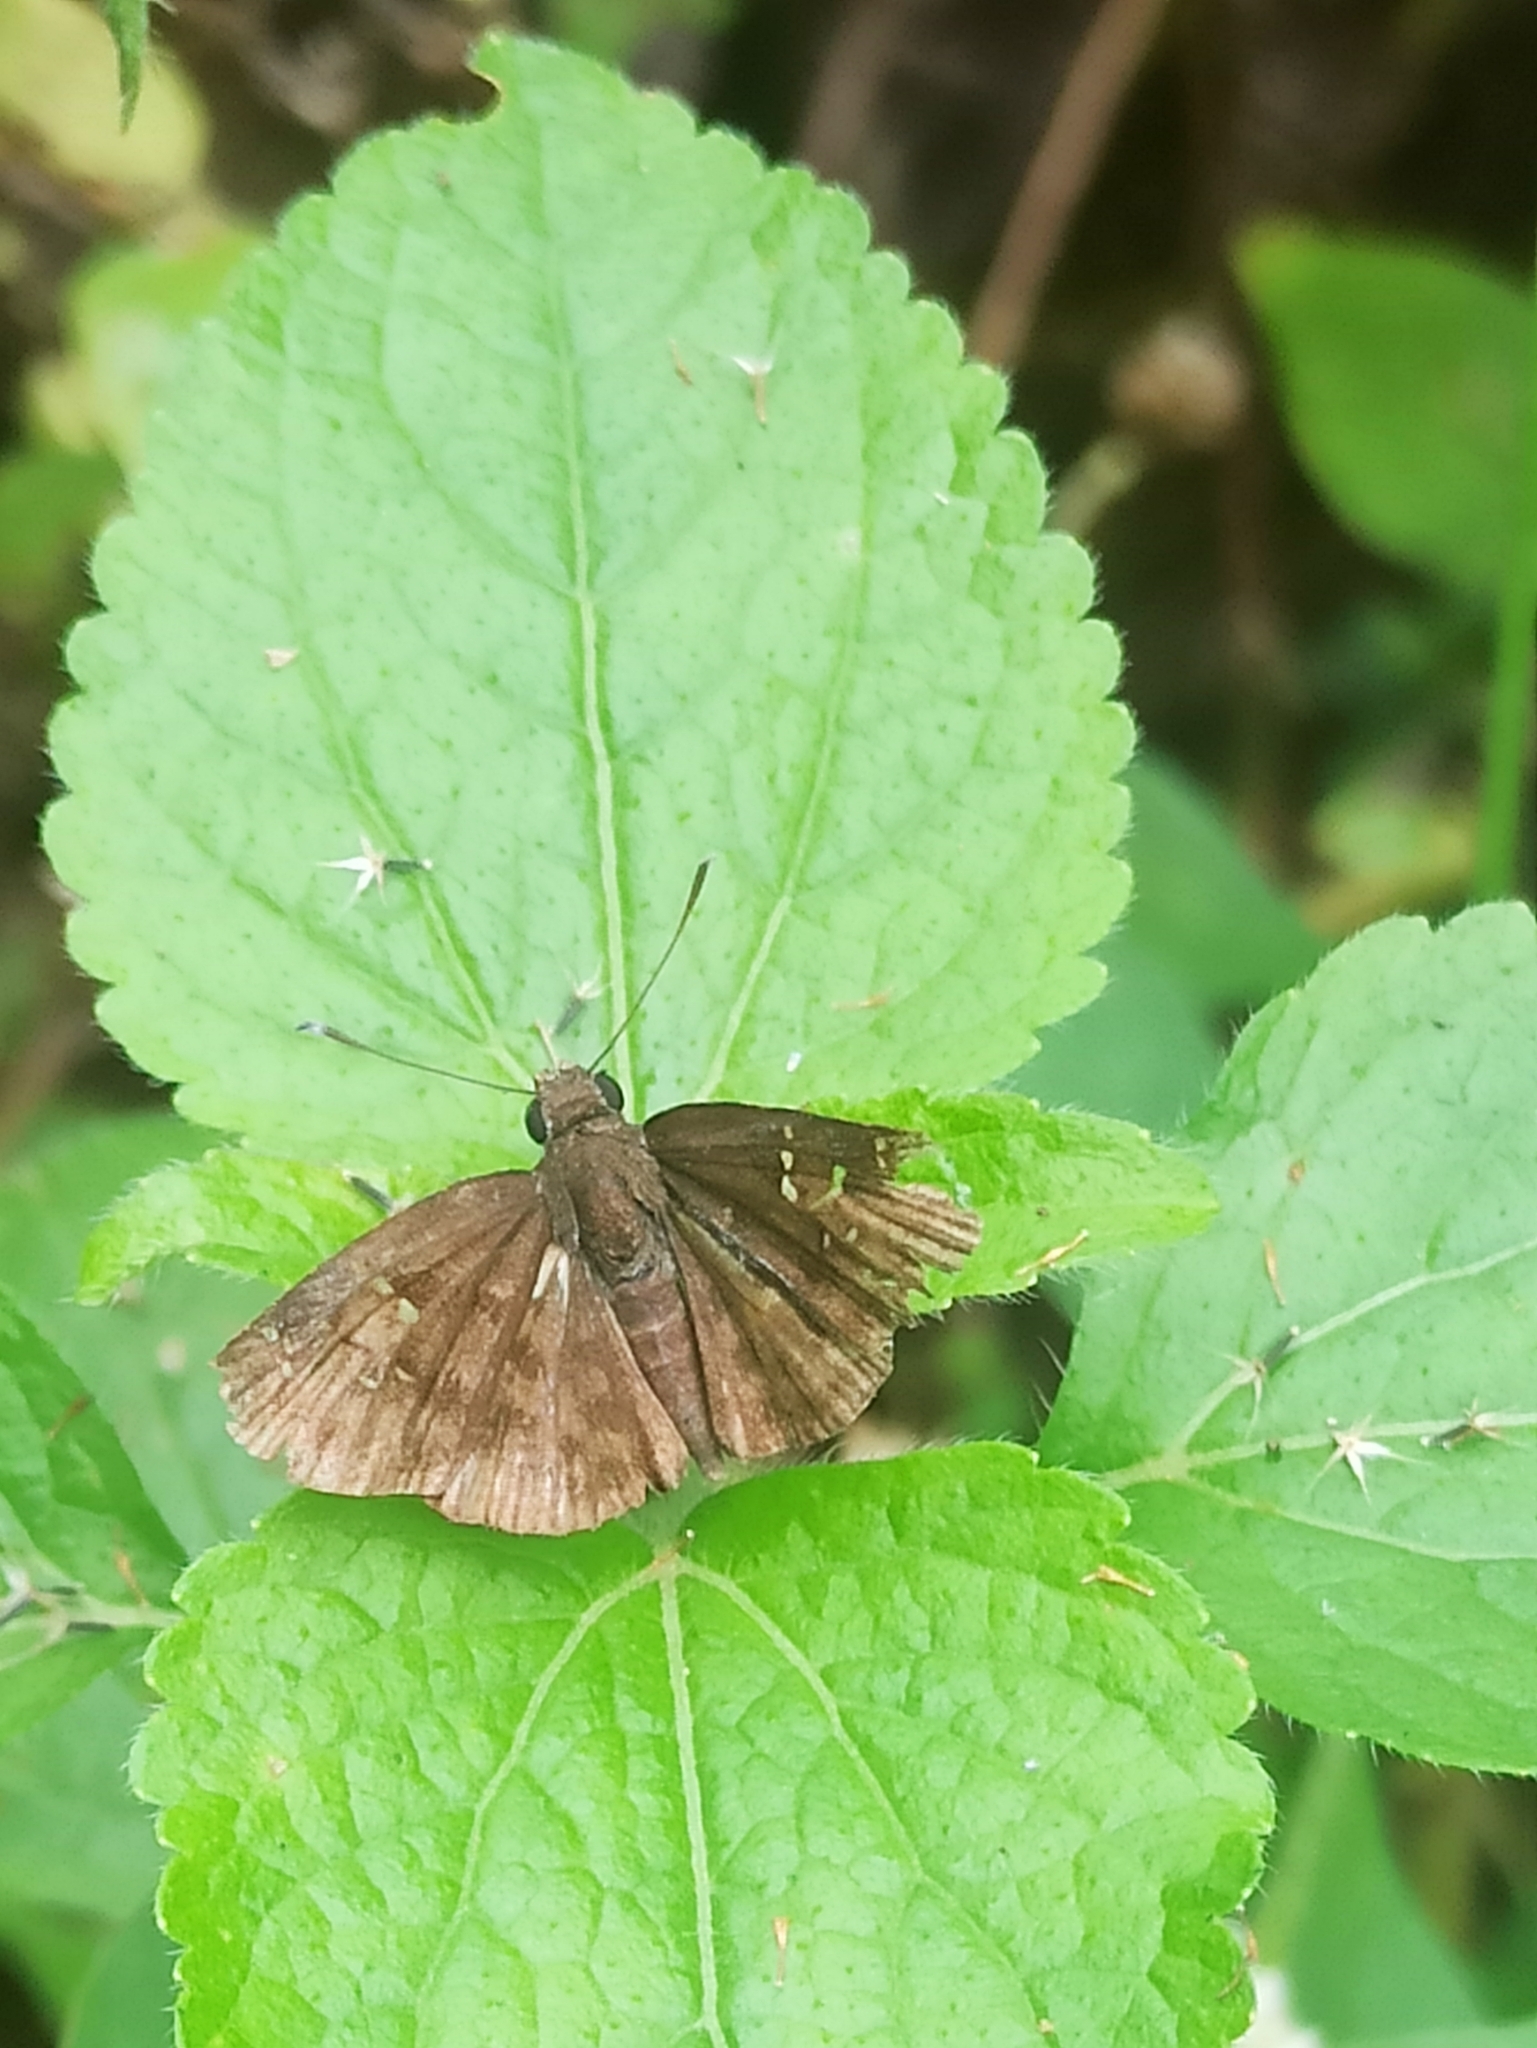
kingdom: Animalia
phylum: Arthropoda
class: Insecta
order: Lepidoptera
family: Hesperiidae
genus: Sarangesa
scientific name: Sarangesa dasahara
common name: Common small flat
